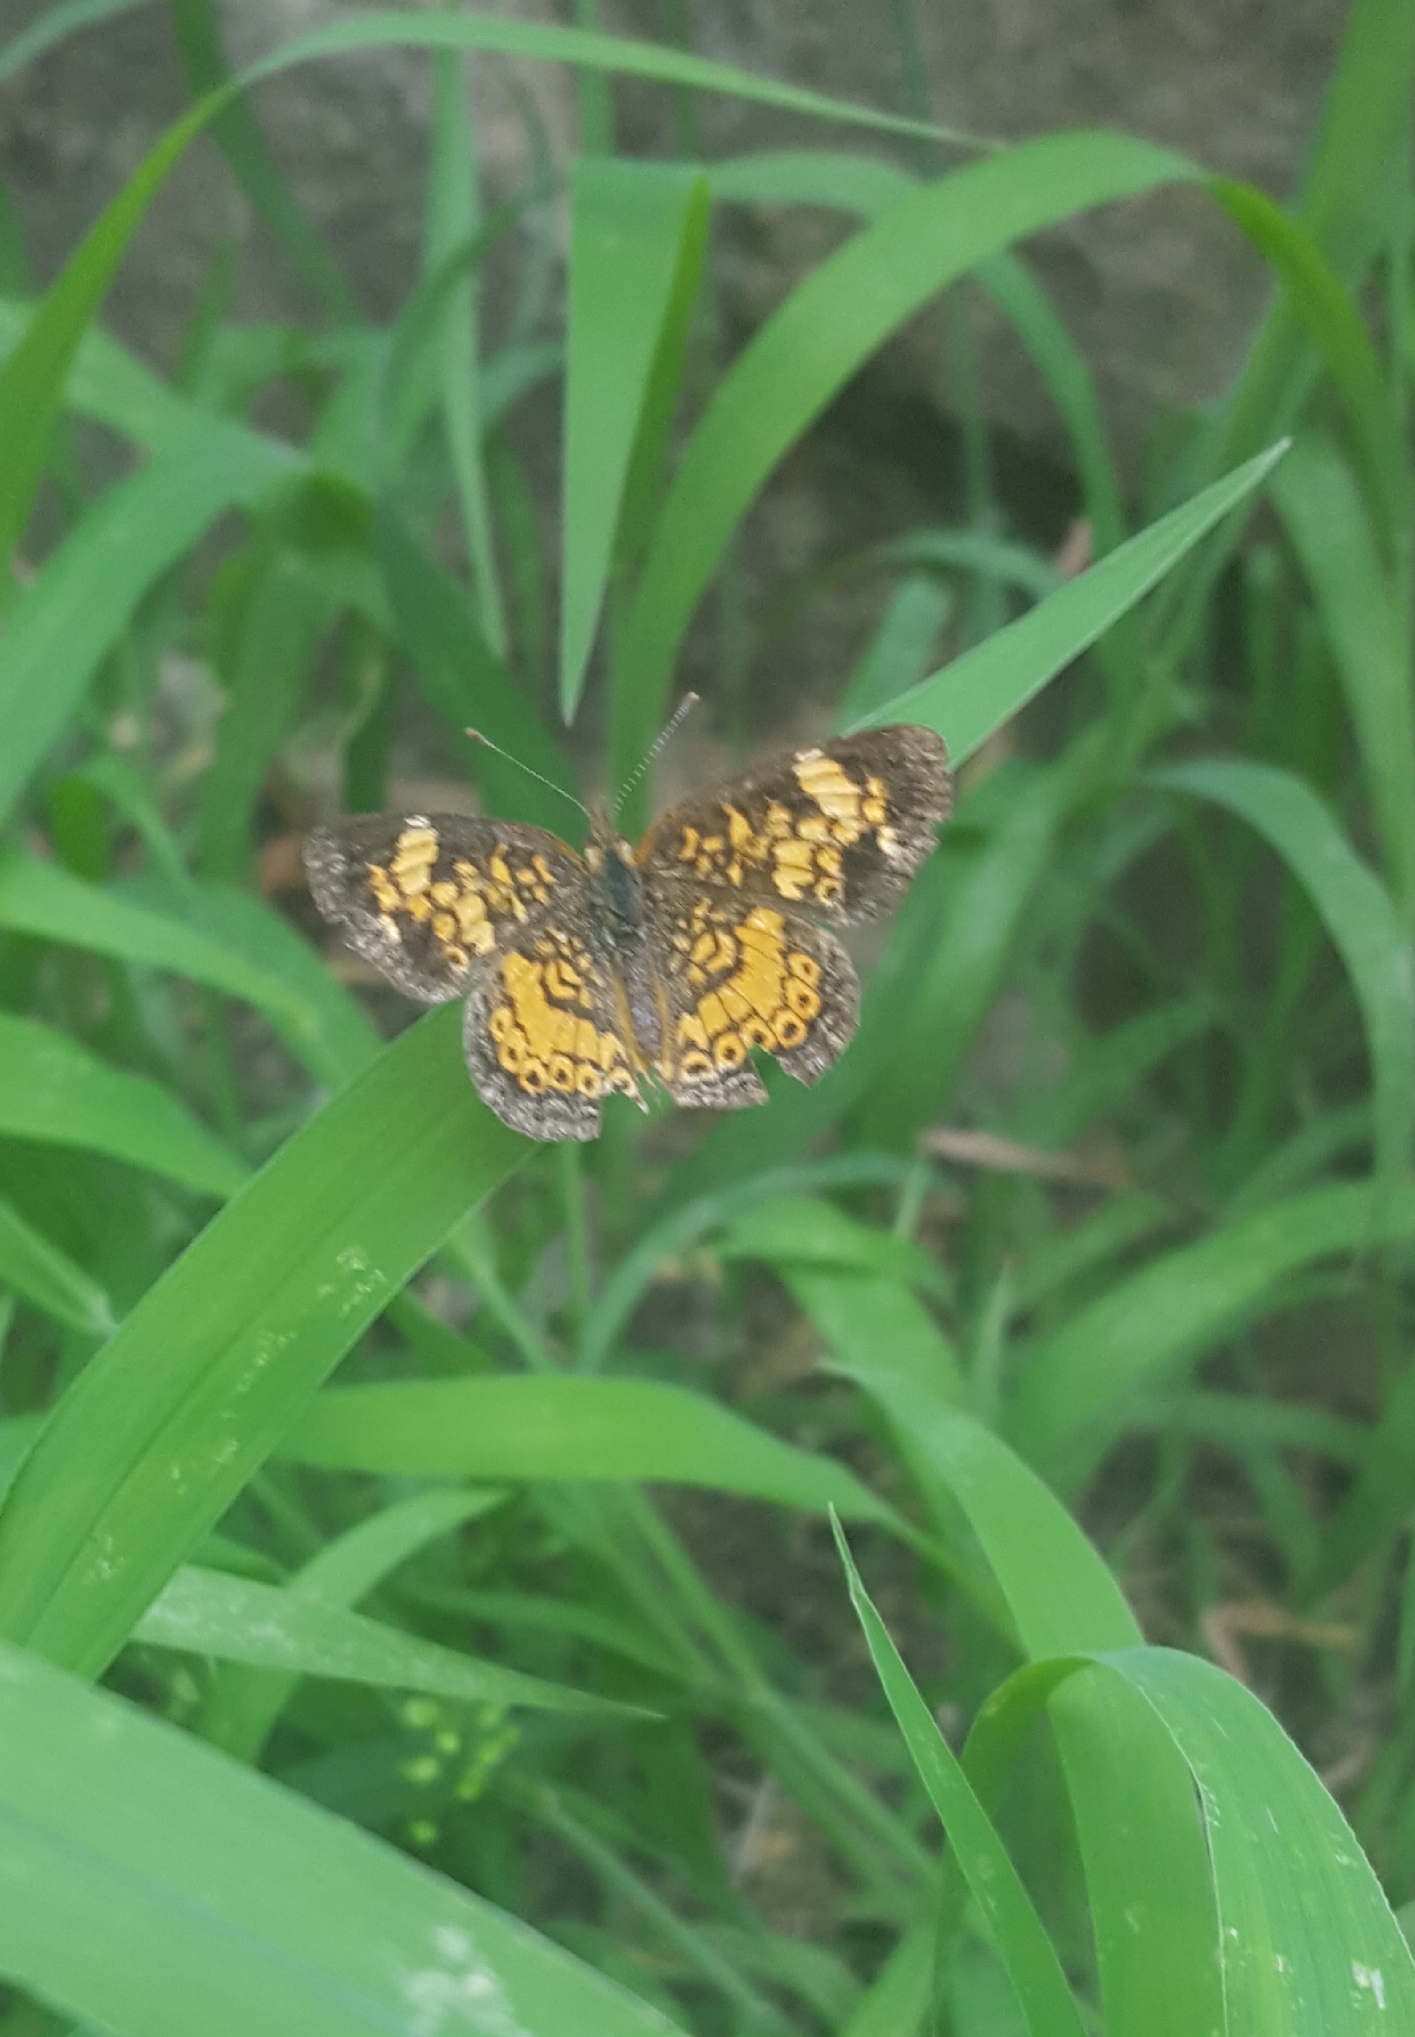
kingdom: Animalia
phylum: Arthropoda
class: Insecta
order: Lepidoptera
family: Nymphalidae
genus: Phyciodes
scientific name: Phyciodes tharos
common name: Pearl crescent
